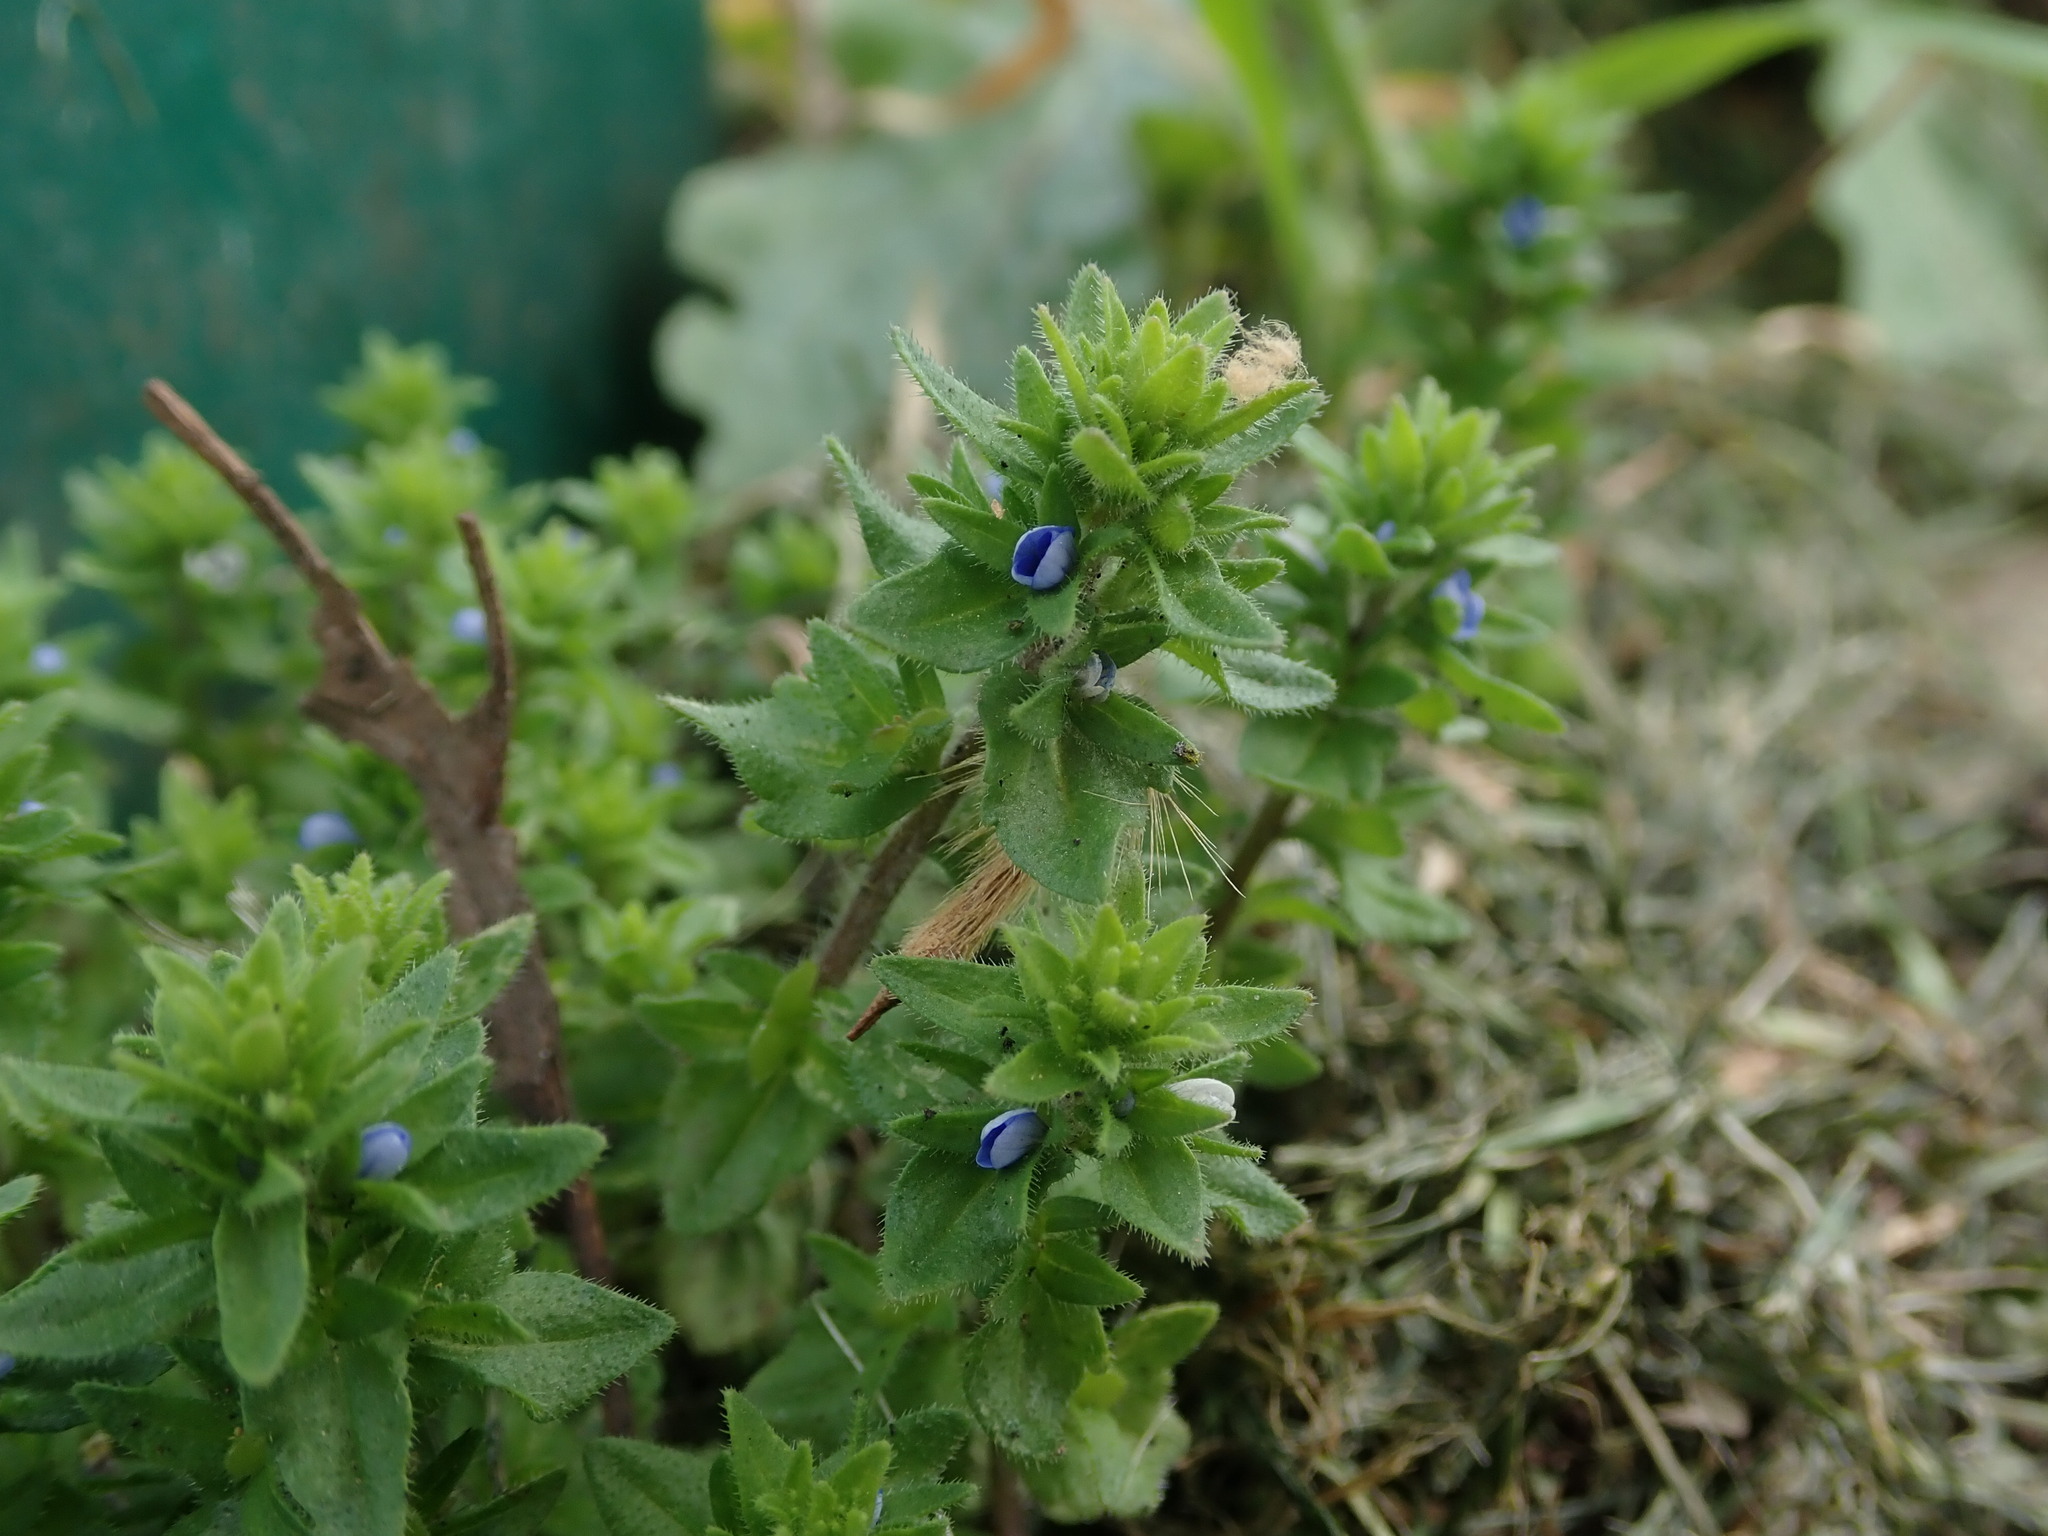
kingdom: Plantae
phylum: Tracheophyta
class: Magnoliopsida
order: Lamiales
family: Plantaginaceae
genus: Veronica
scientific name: Veronica arvensis
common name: Corn speedwell
